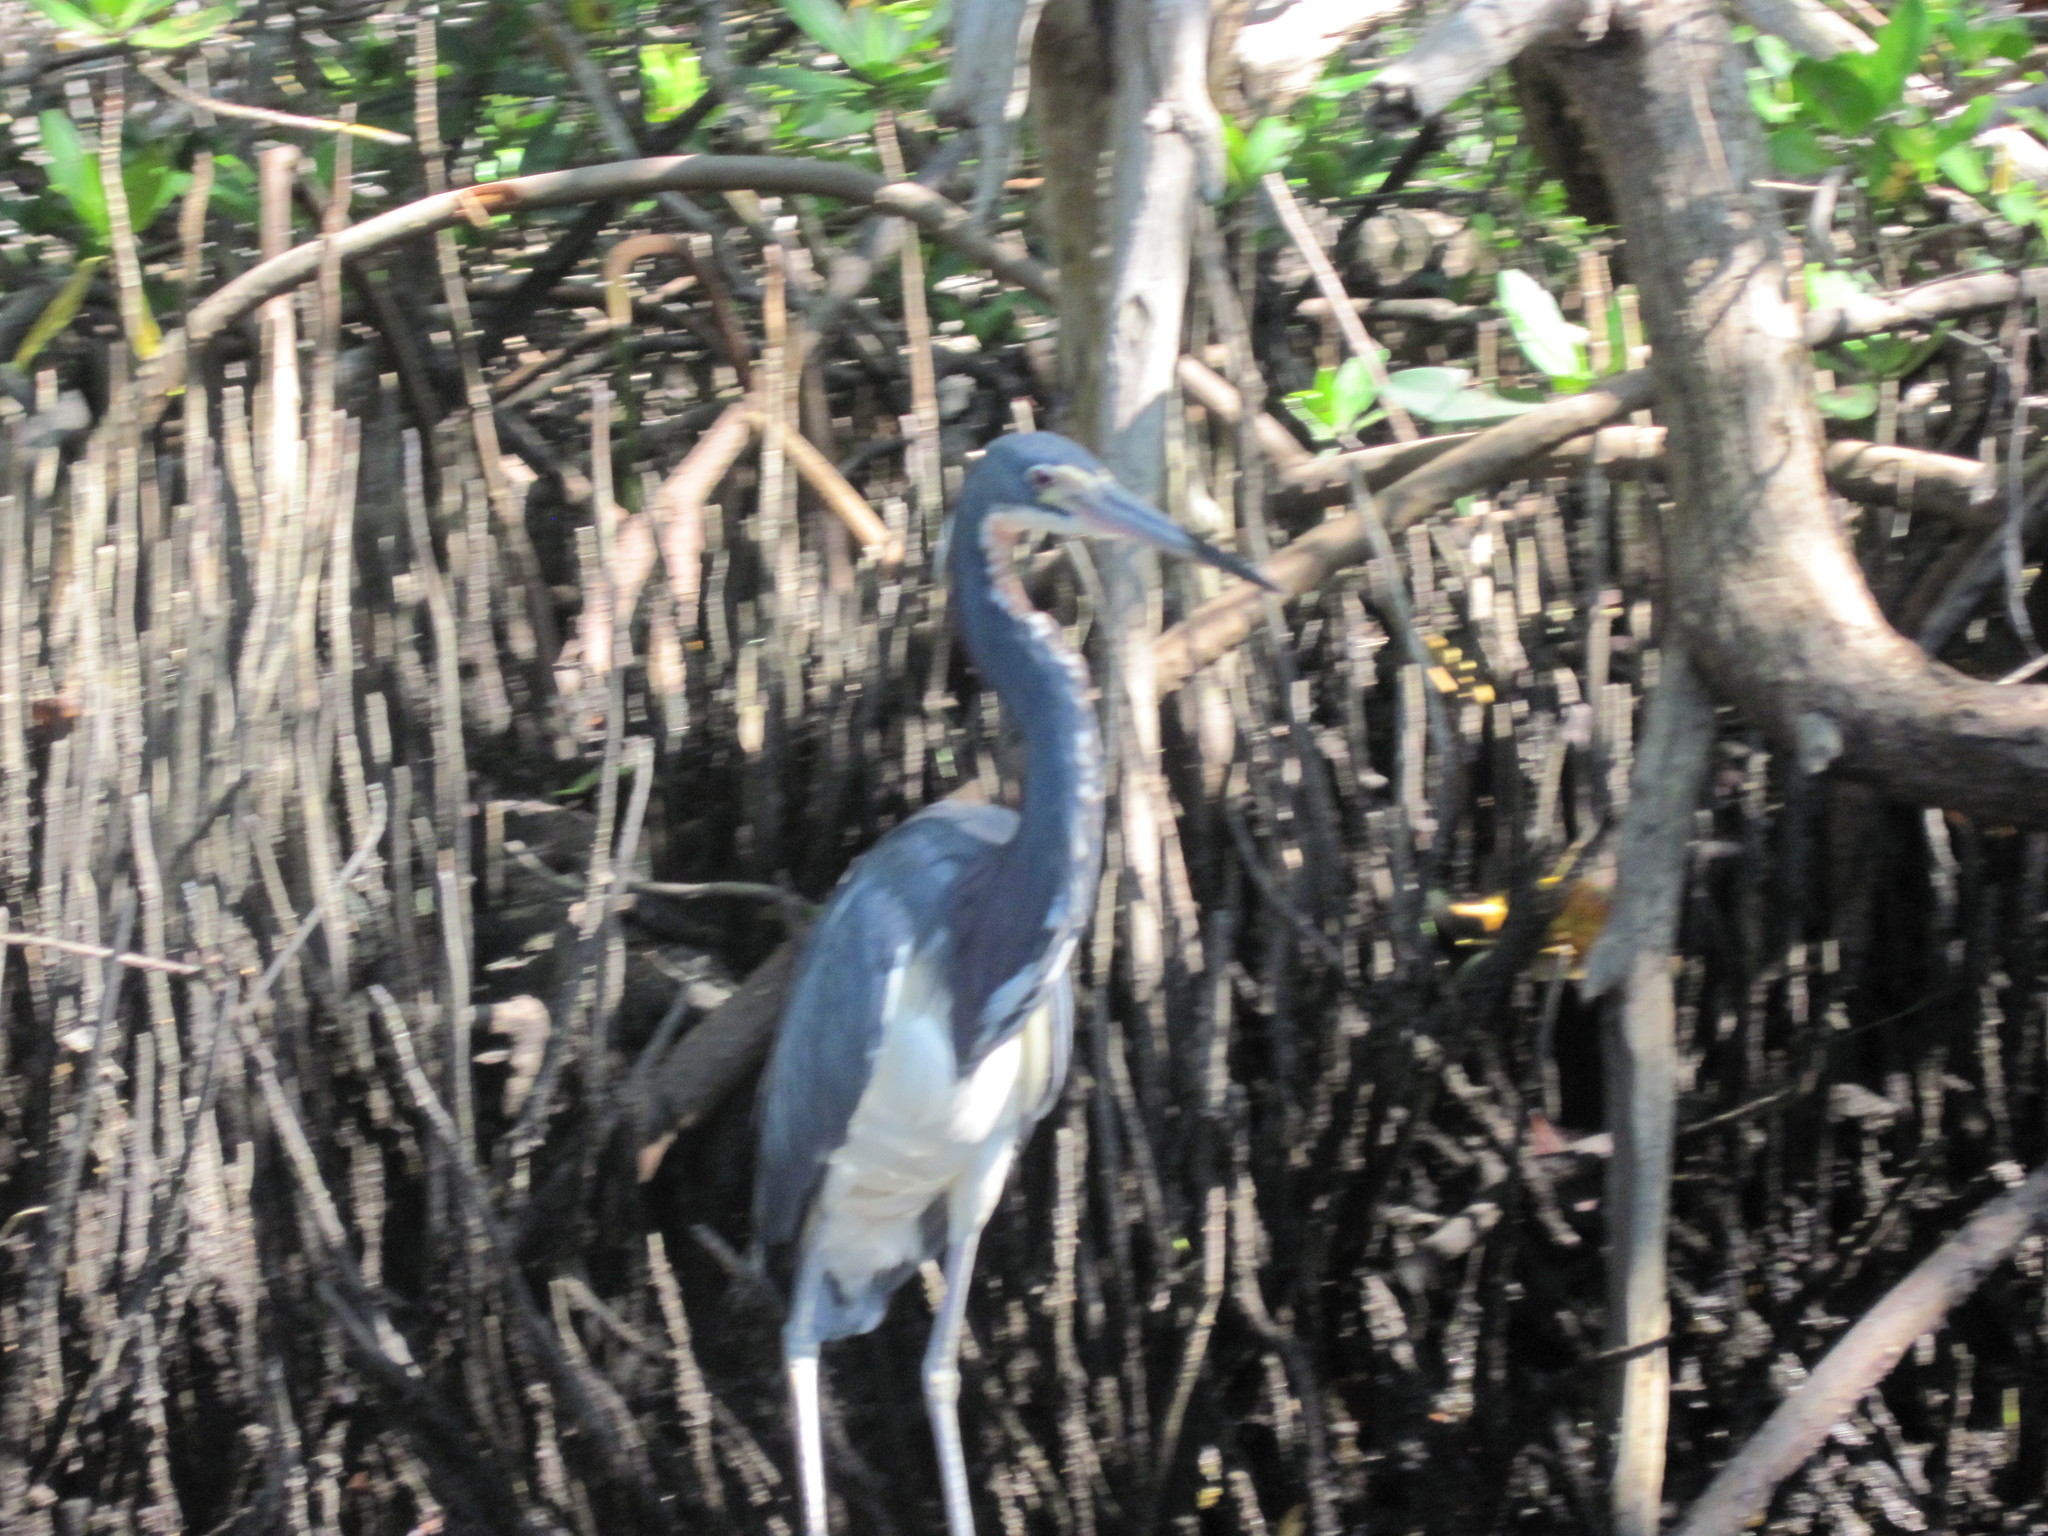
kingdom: Animalia
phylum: Chordata
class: Aves
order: Pelecaniformes
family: Ardeidae
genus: Egretta
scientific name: Egretta tricolor
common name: Tricolored heron
